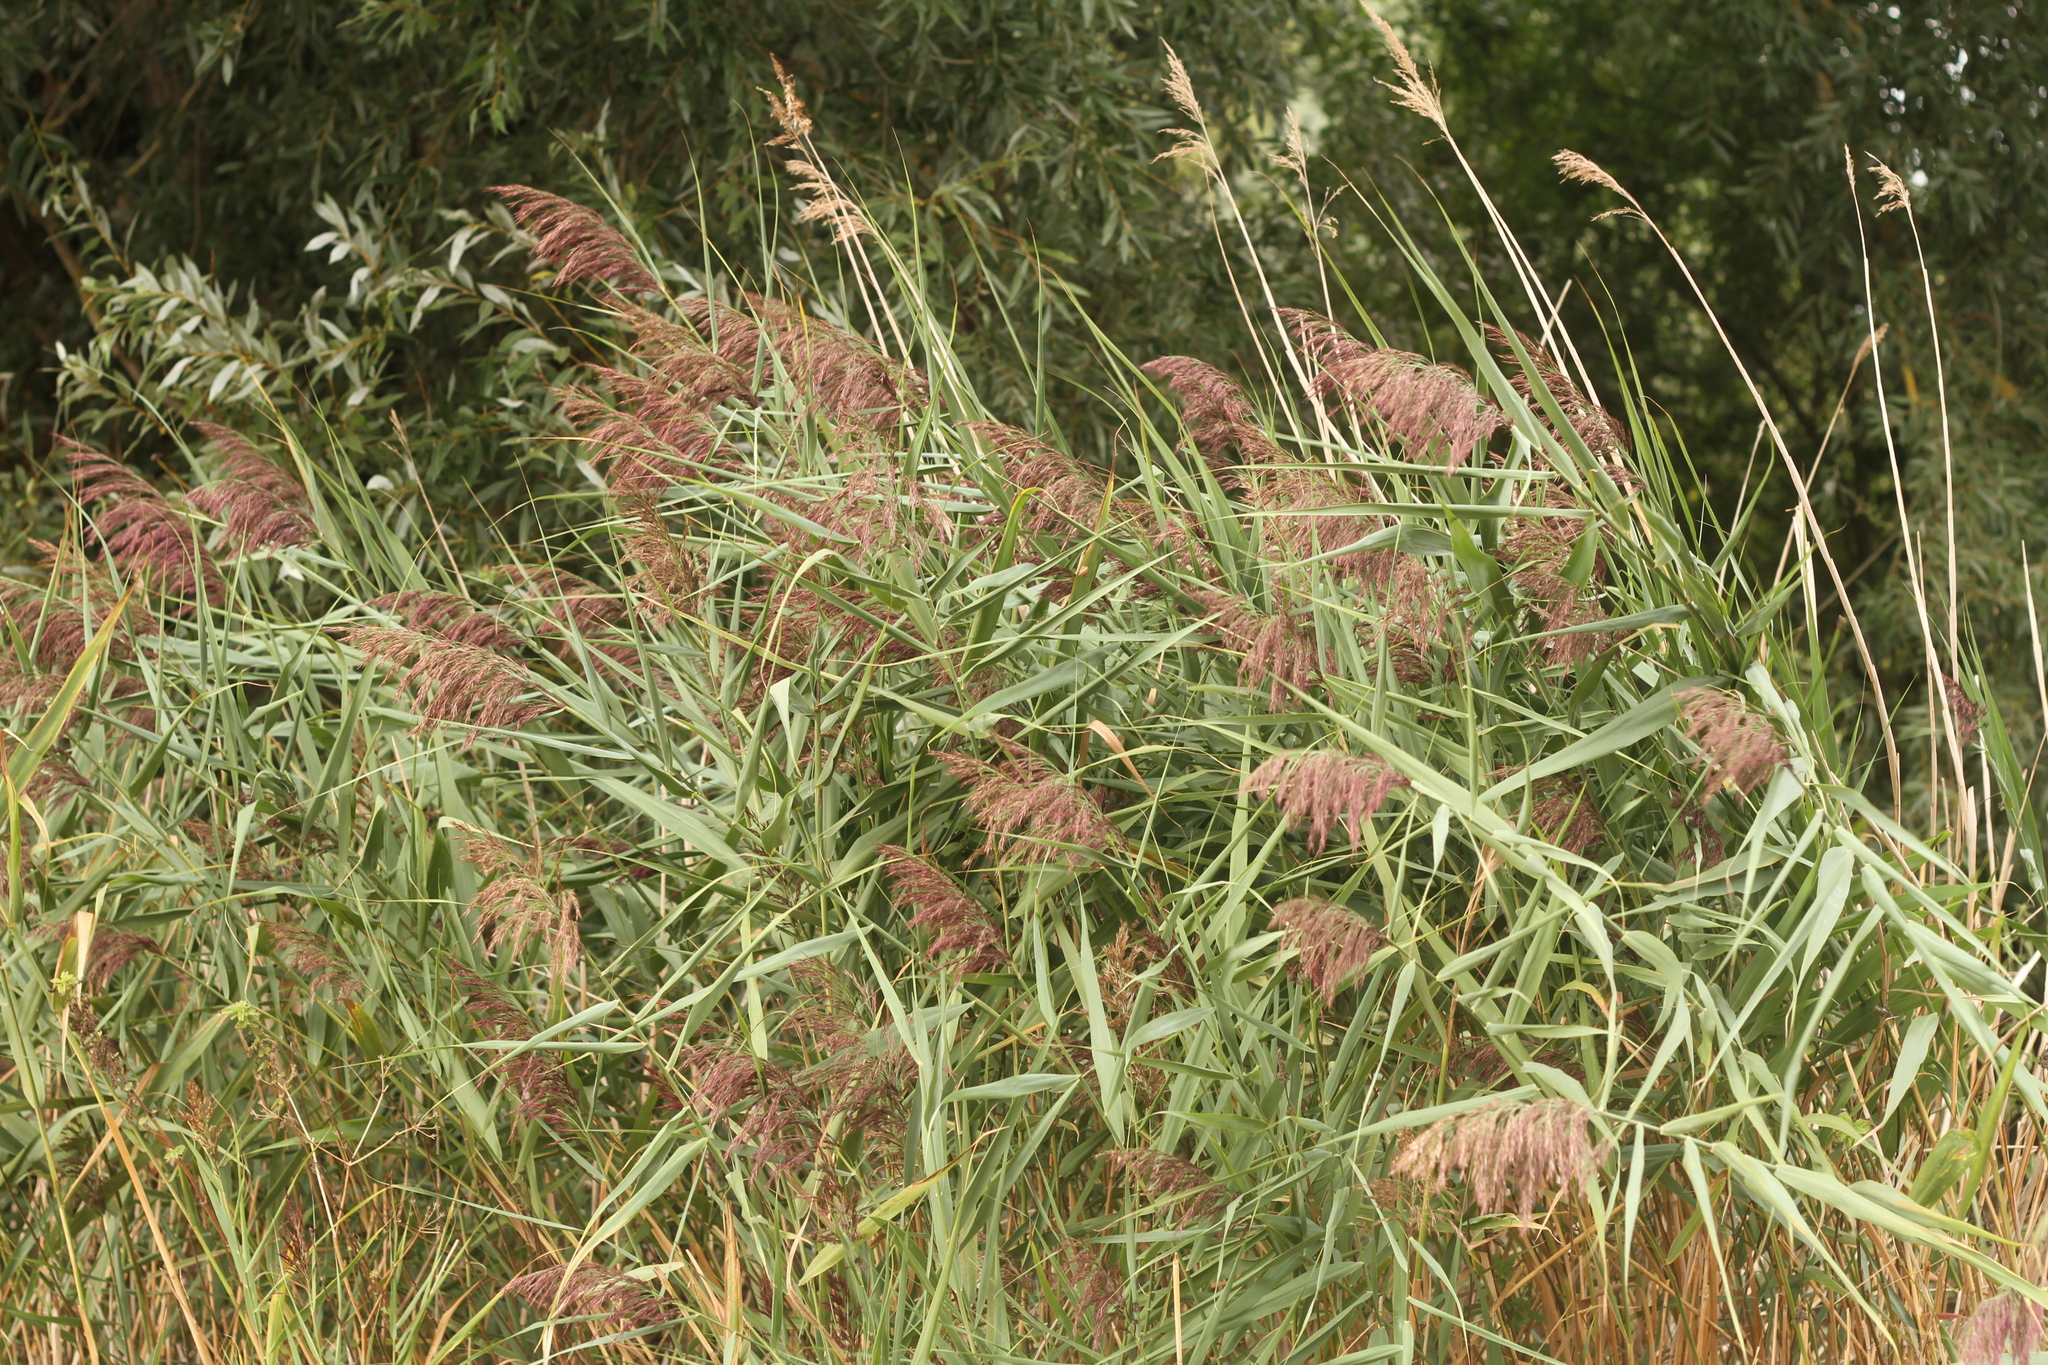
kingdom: Plantae
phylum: Tracheophyta
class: Liliopsida
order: Poales
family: Poaceae
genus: Phragmites
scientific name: Phragmites australis
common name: Common reed
